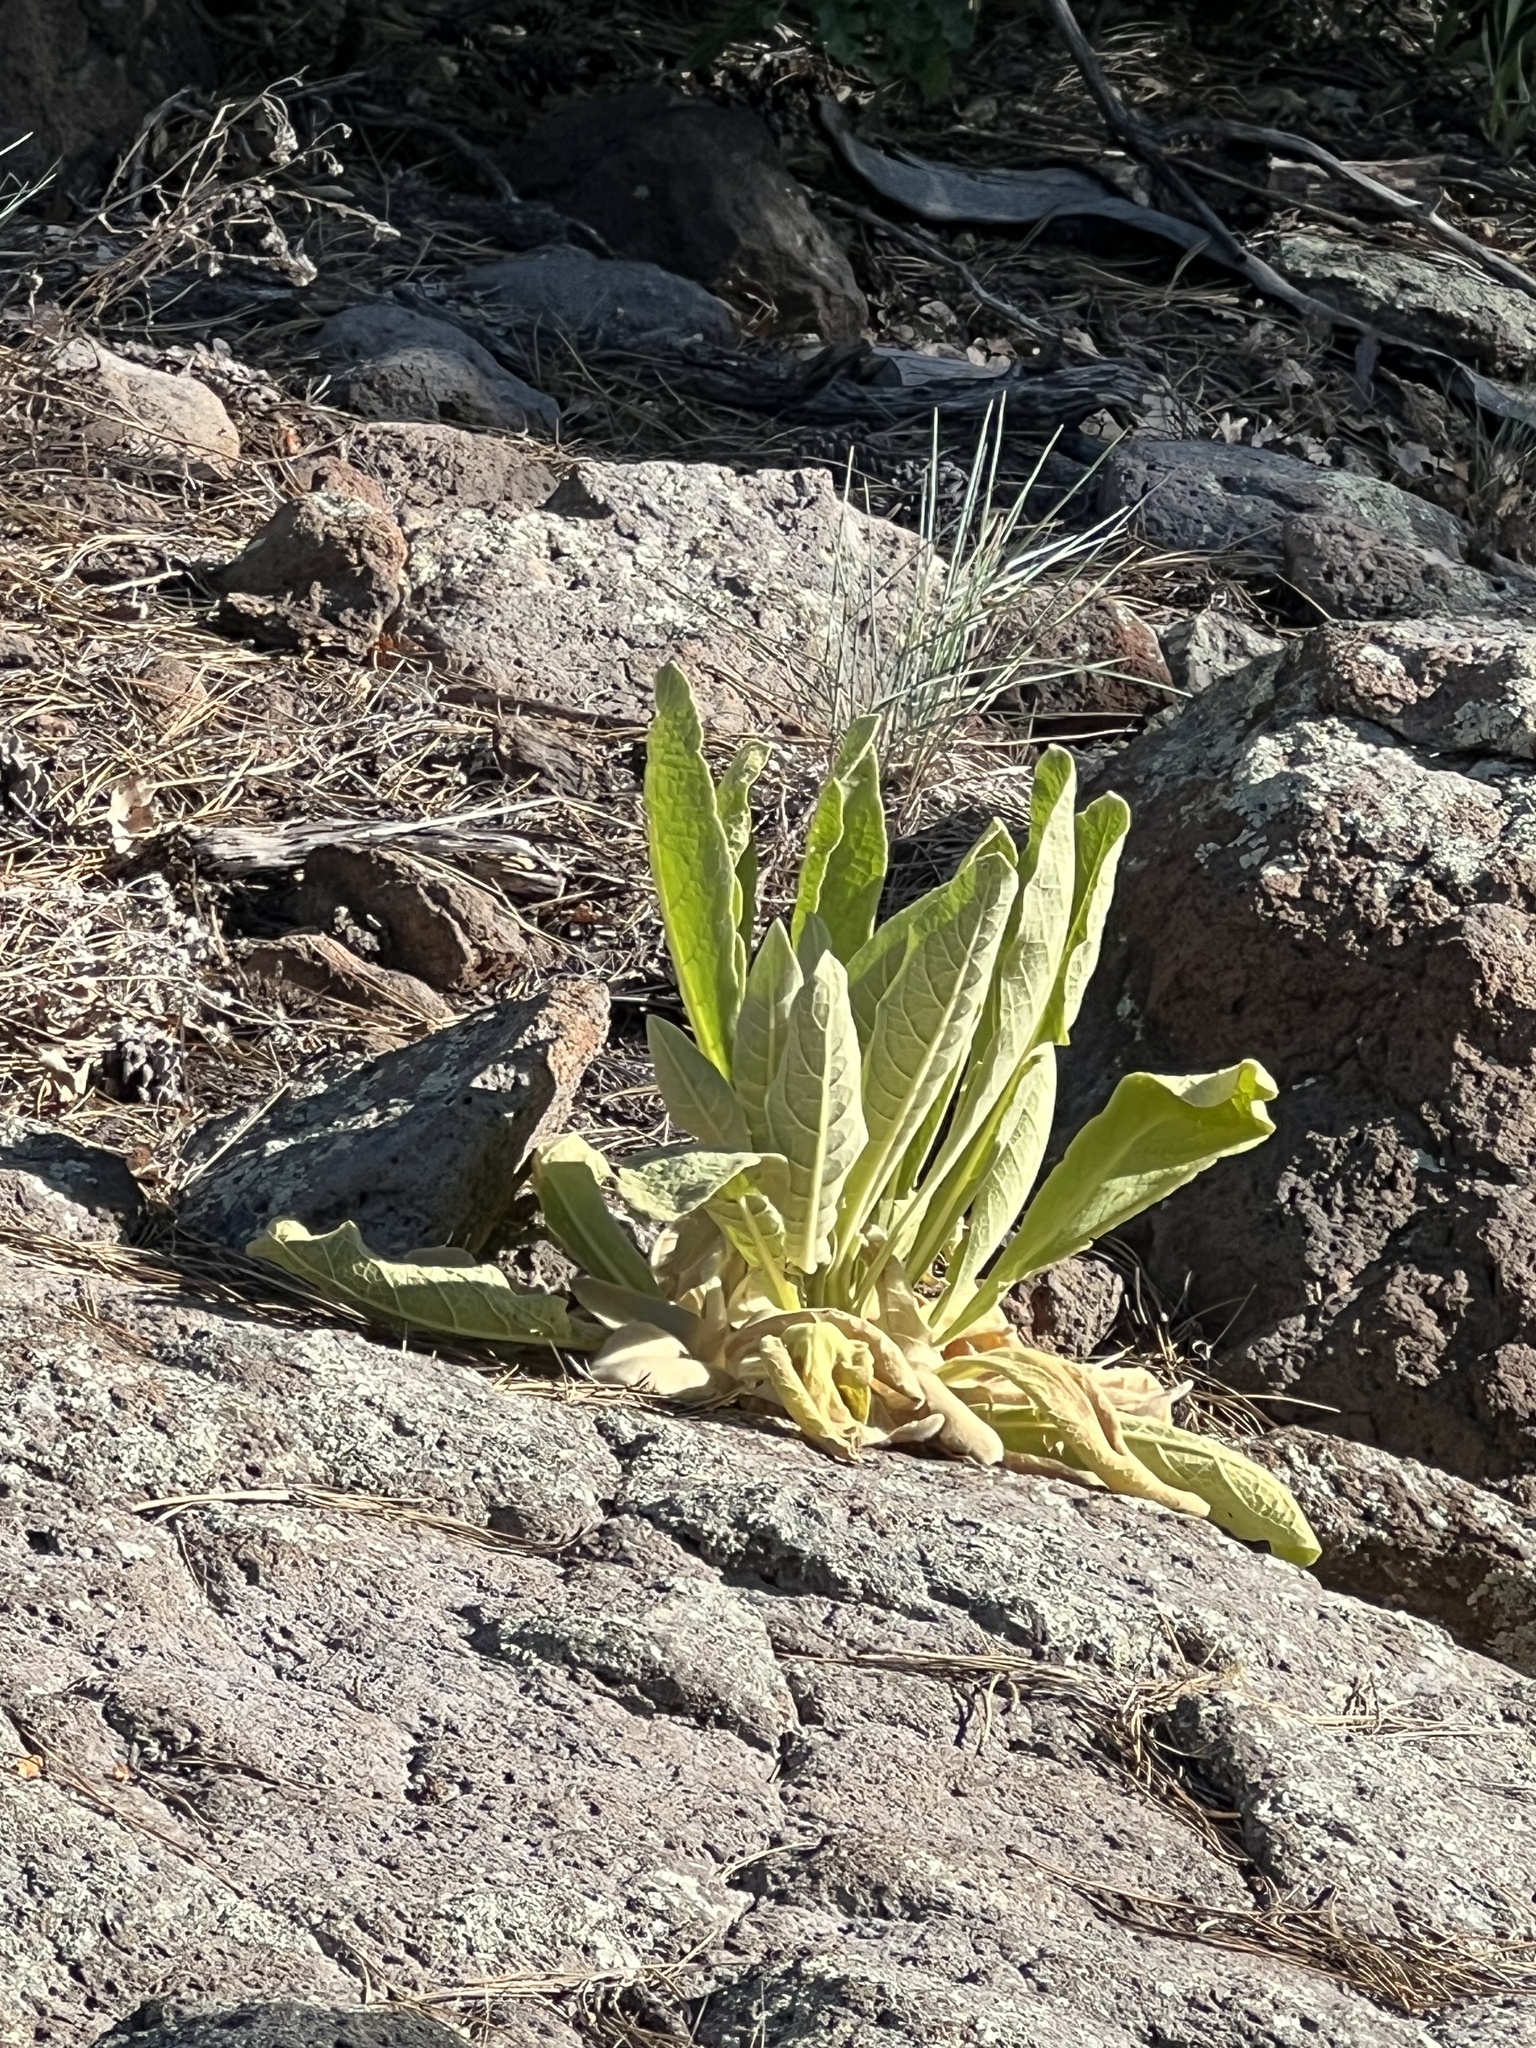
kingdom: Plantae
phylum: Tracheophyta
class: Magnoliopsida
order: Lamiales
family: Scrophulariaceae
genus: Verbascum
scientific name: Verbascum thapsus
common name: Common mullein
